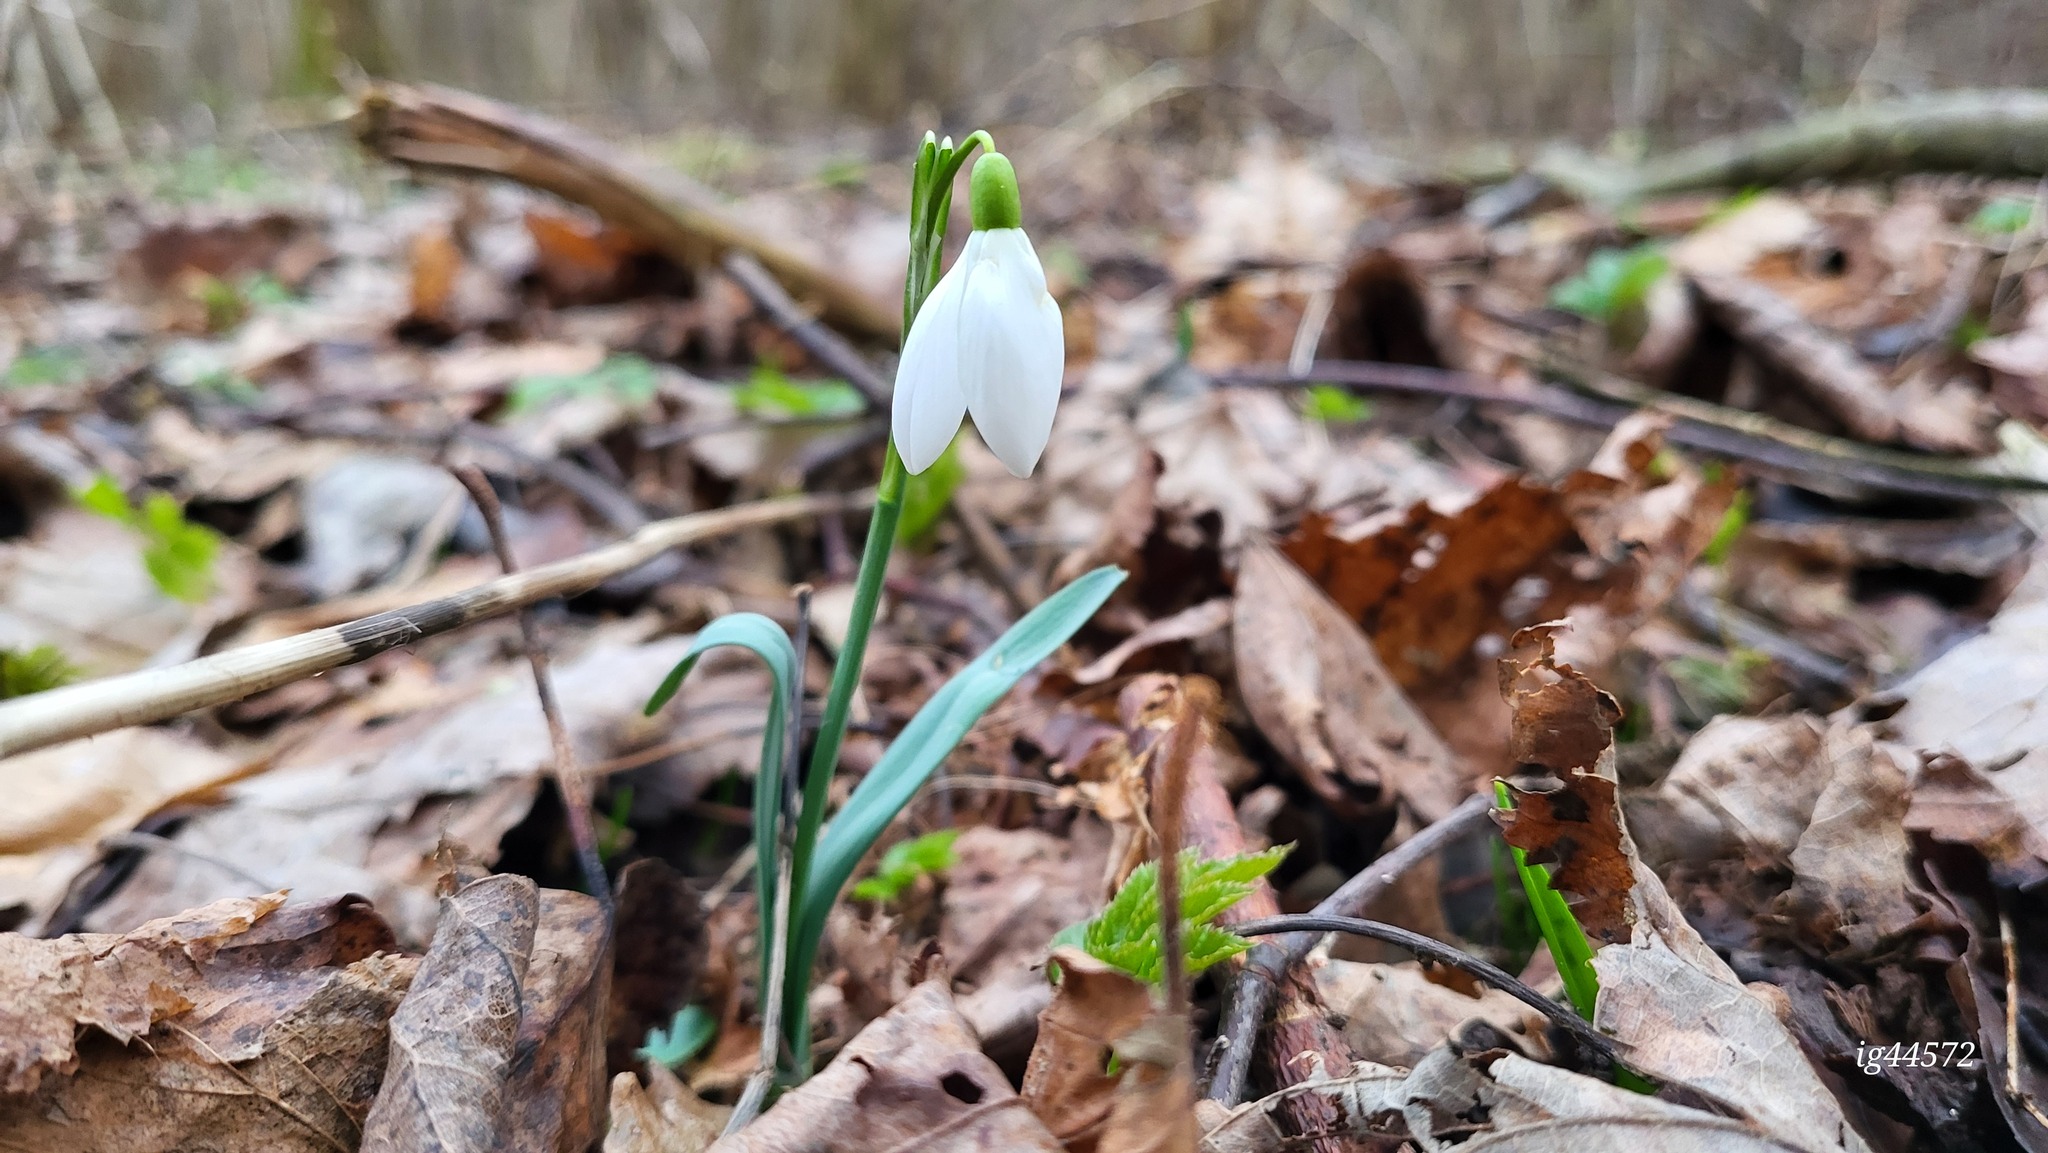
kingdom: Plantae
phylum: Tracheophyta
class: Liliopsida
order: Asparagales
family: Amaryllidaceae
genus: Galanthus
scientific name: Galanthus nivalis
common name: Snowdrop
